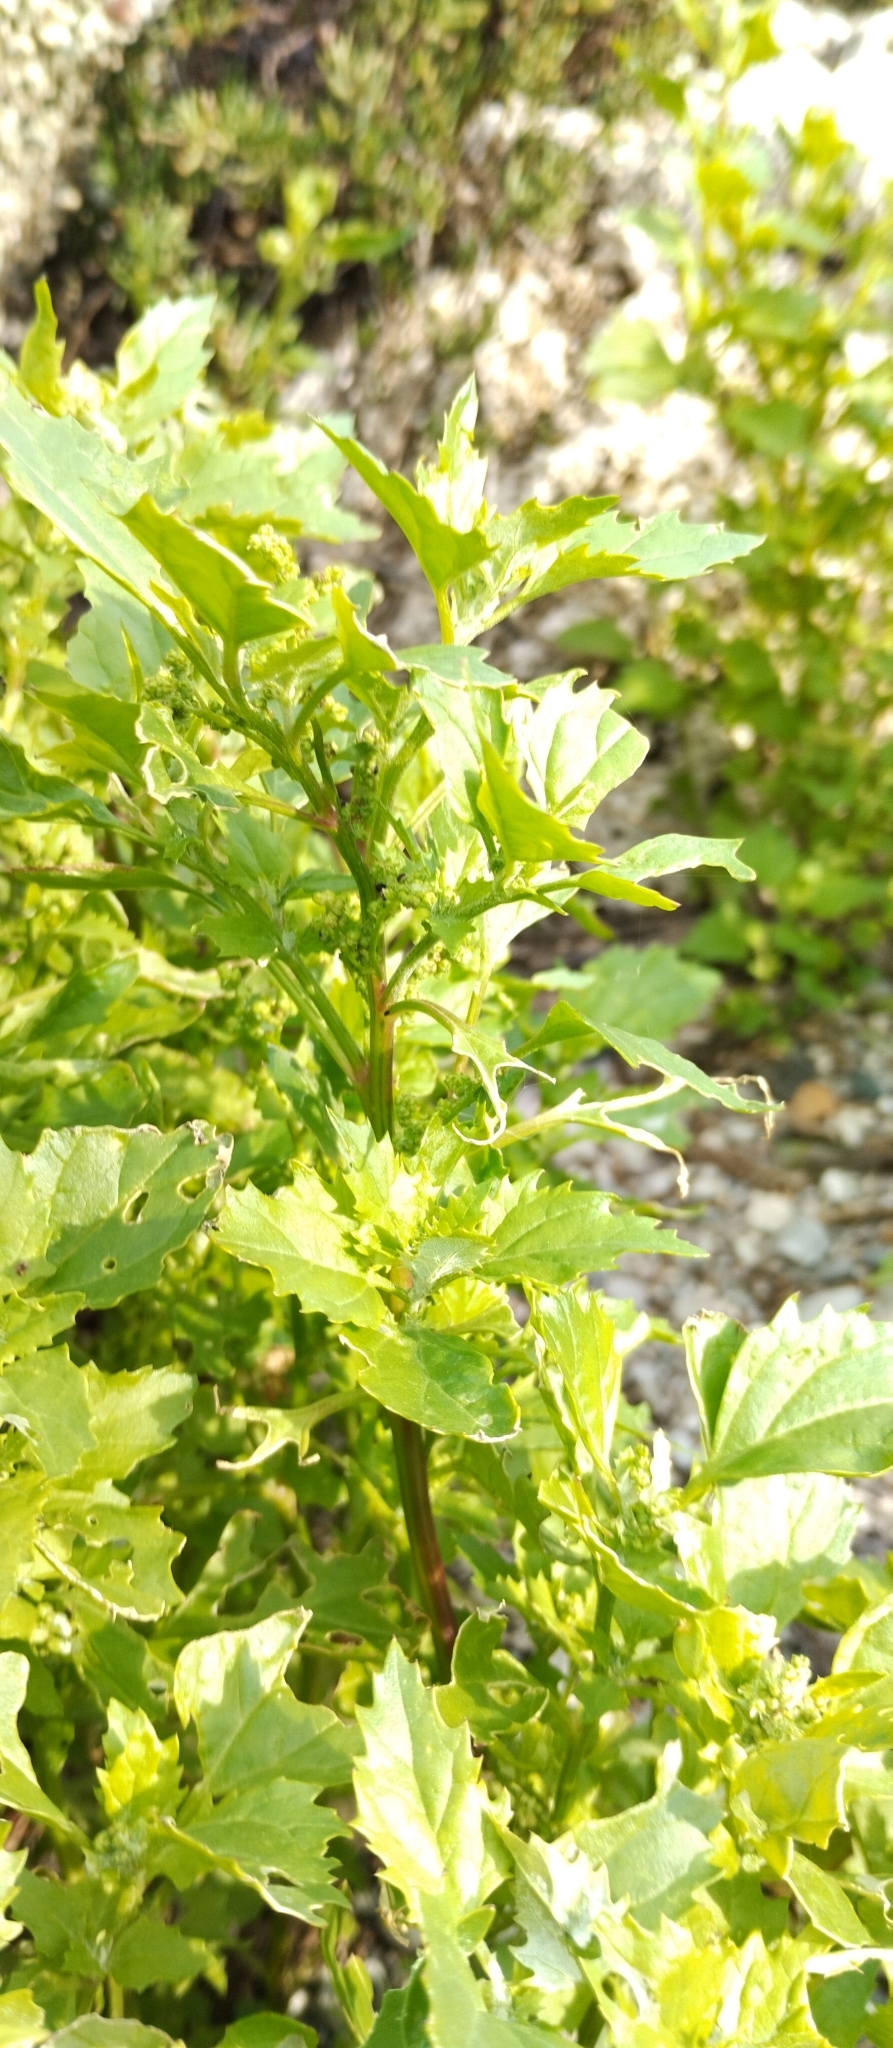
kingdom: Plantae
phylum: Tracheophyta
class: Magnoliopsida
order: Caryophyllales
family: Amaranthaceae
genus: Chenopodiastrum
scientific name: Chenopodiastrum murale
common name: Sowbane
